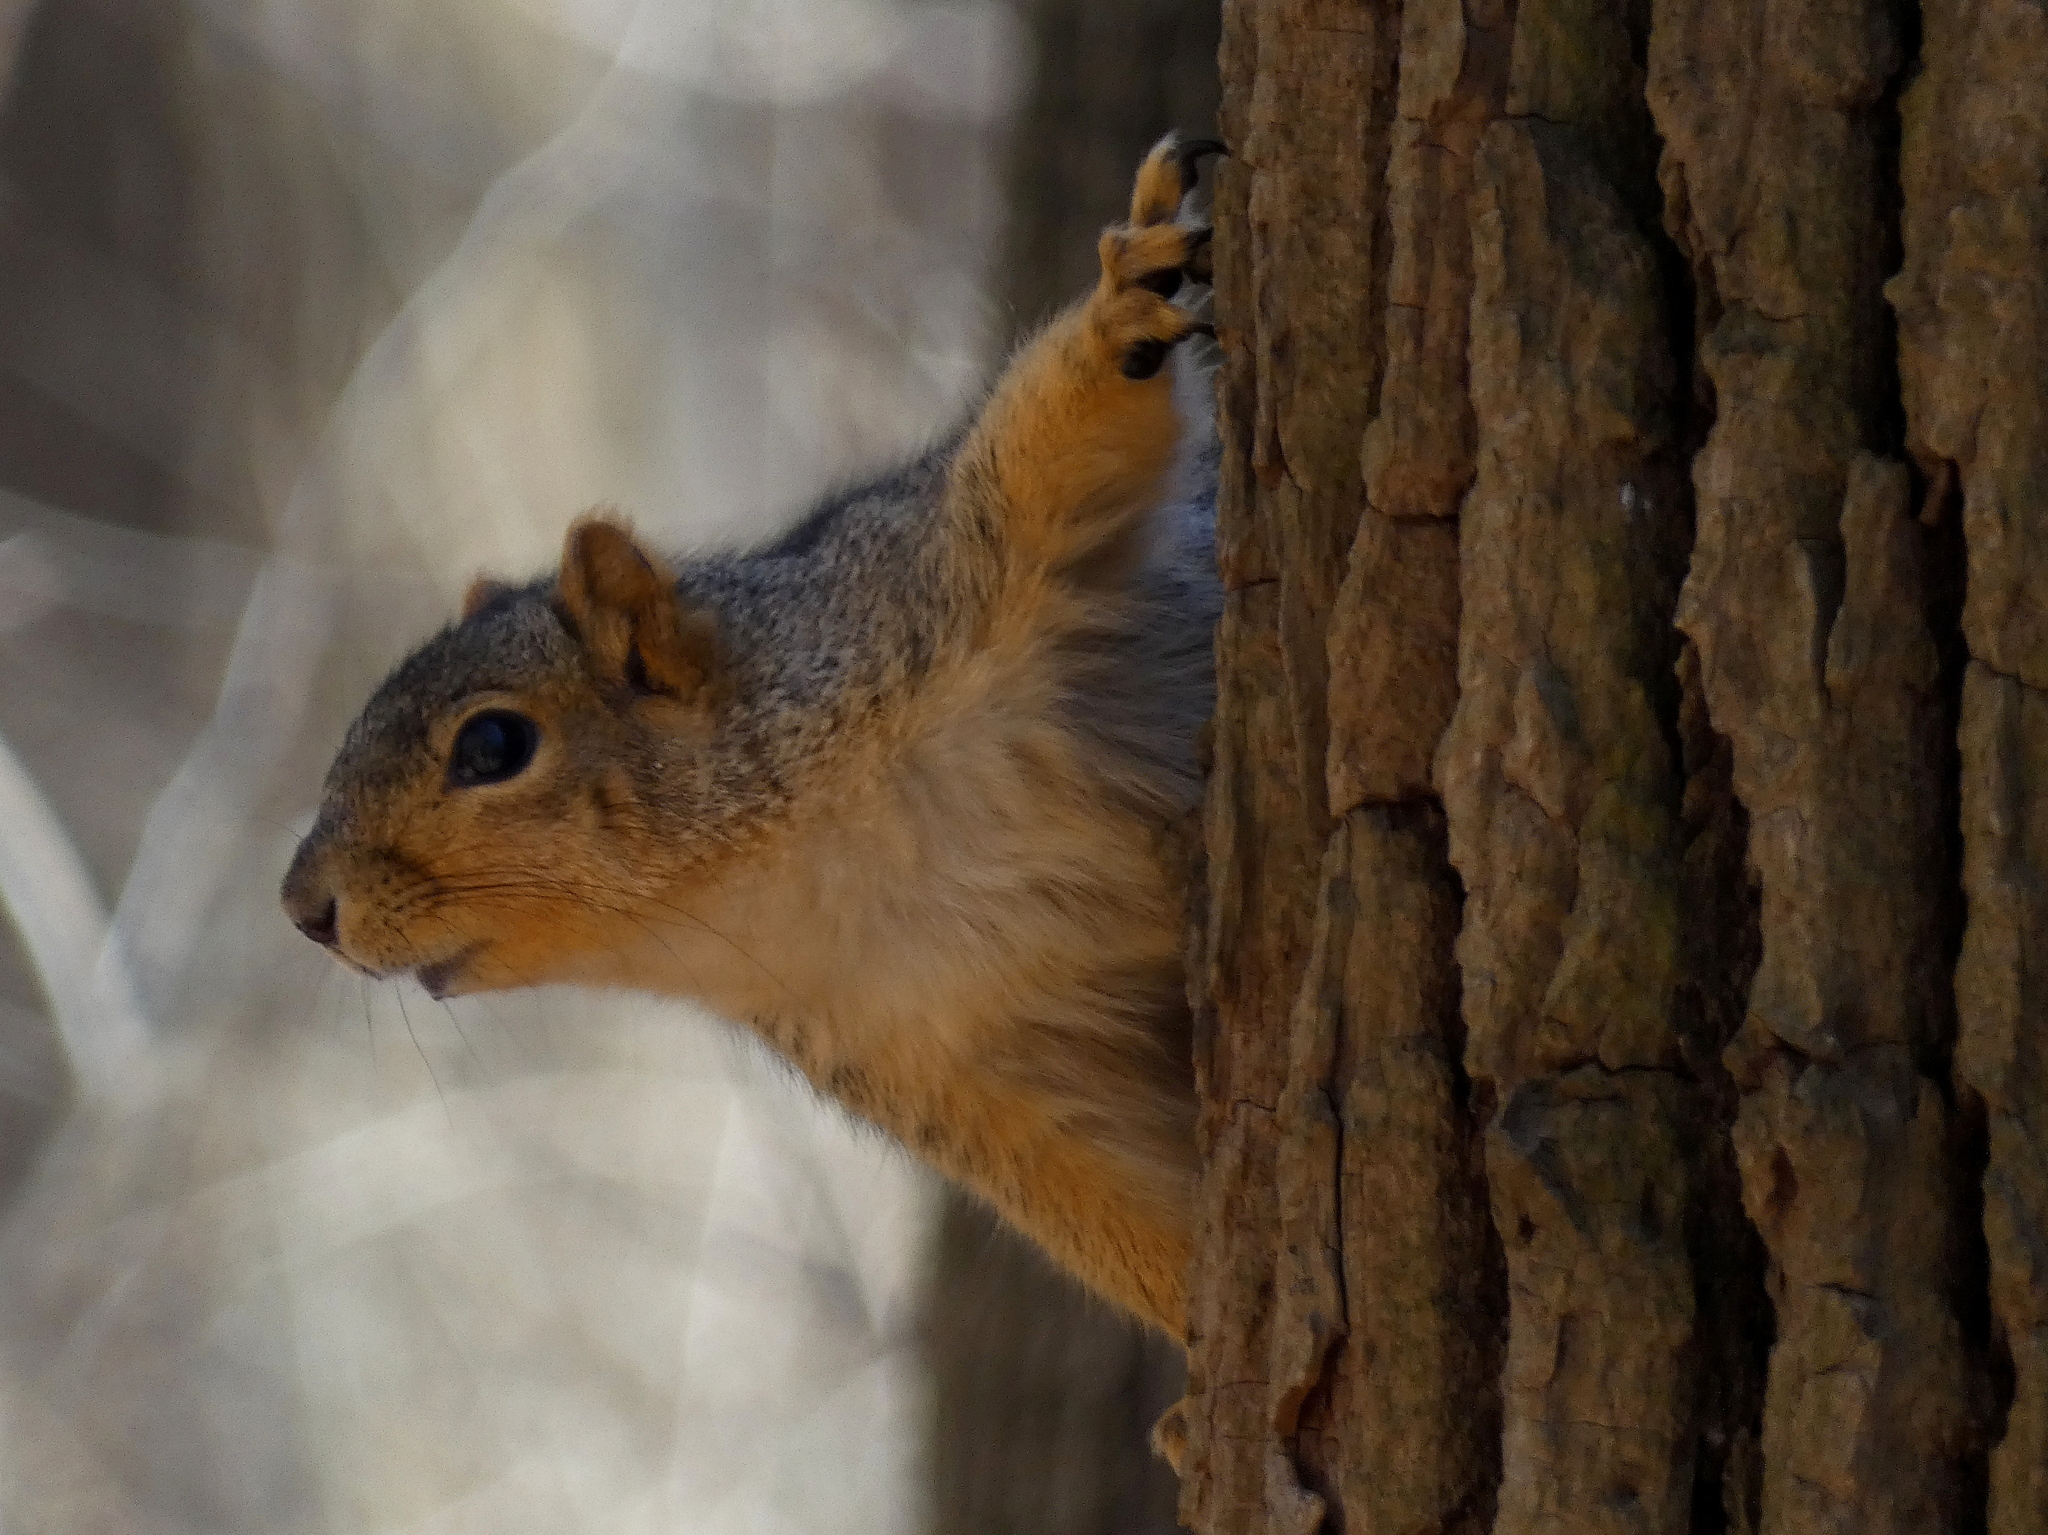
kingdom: Animalia
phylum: Chordata
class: Mammalia
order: Rodentia
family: Sciuridae
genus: Sciurus
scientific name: Sciurus niger
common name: Fox squirrel
